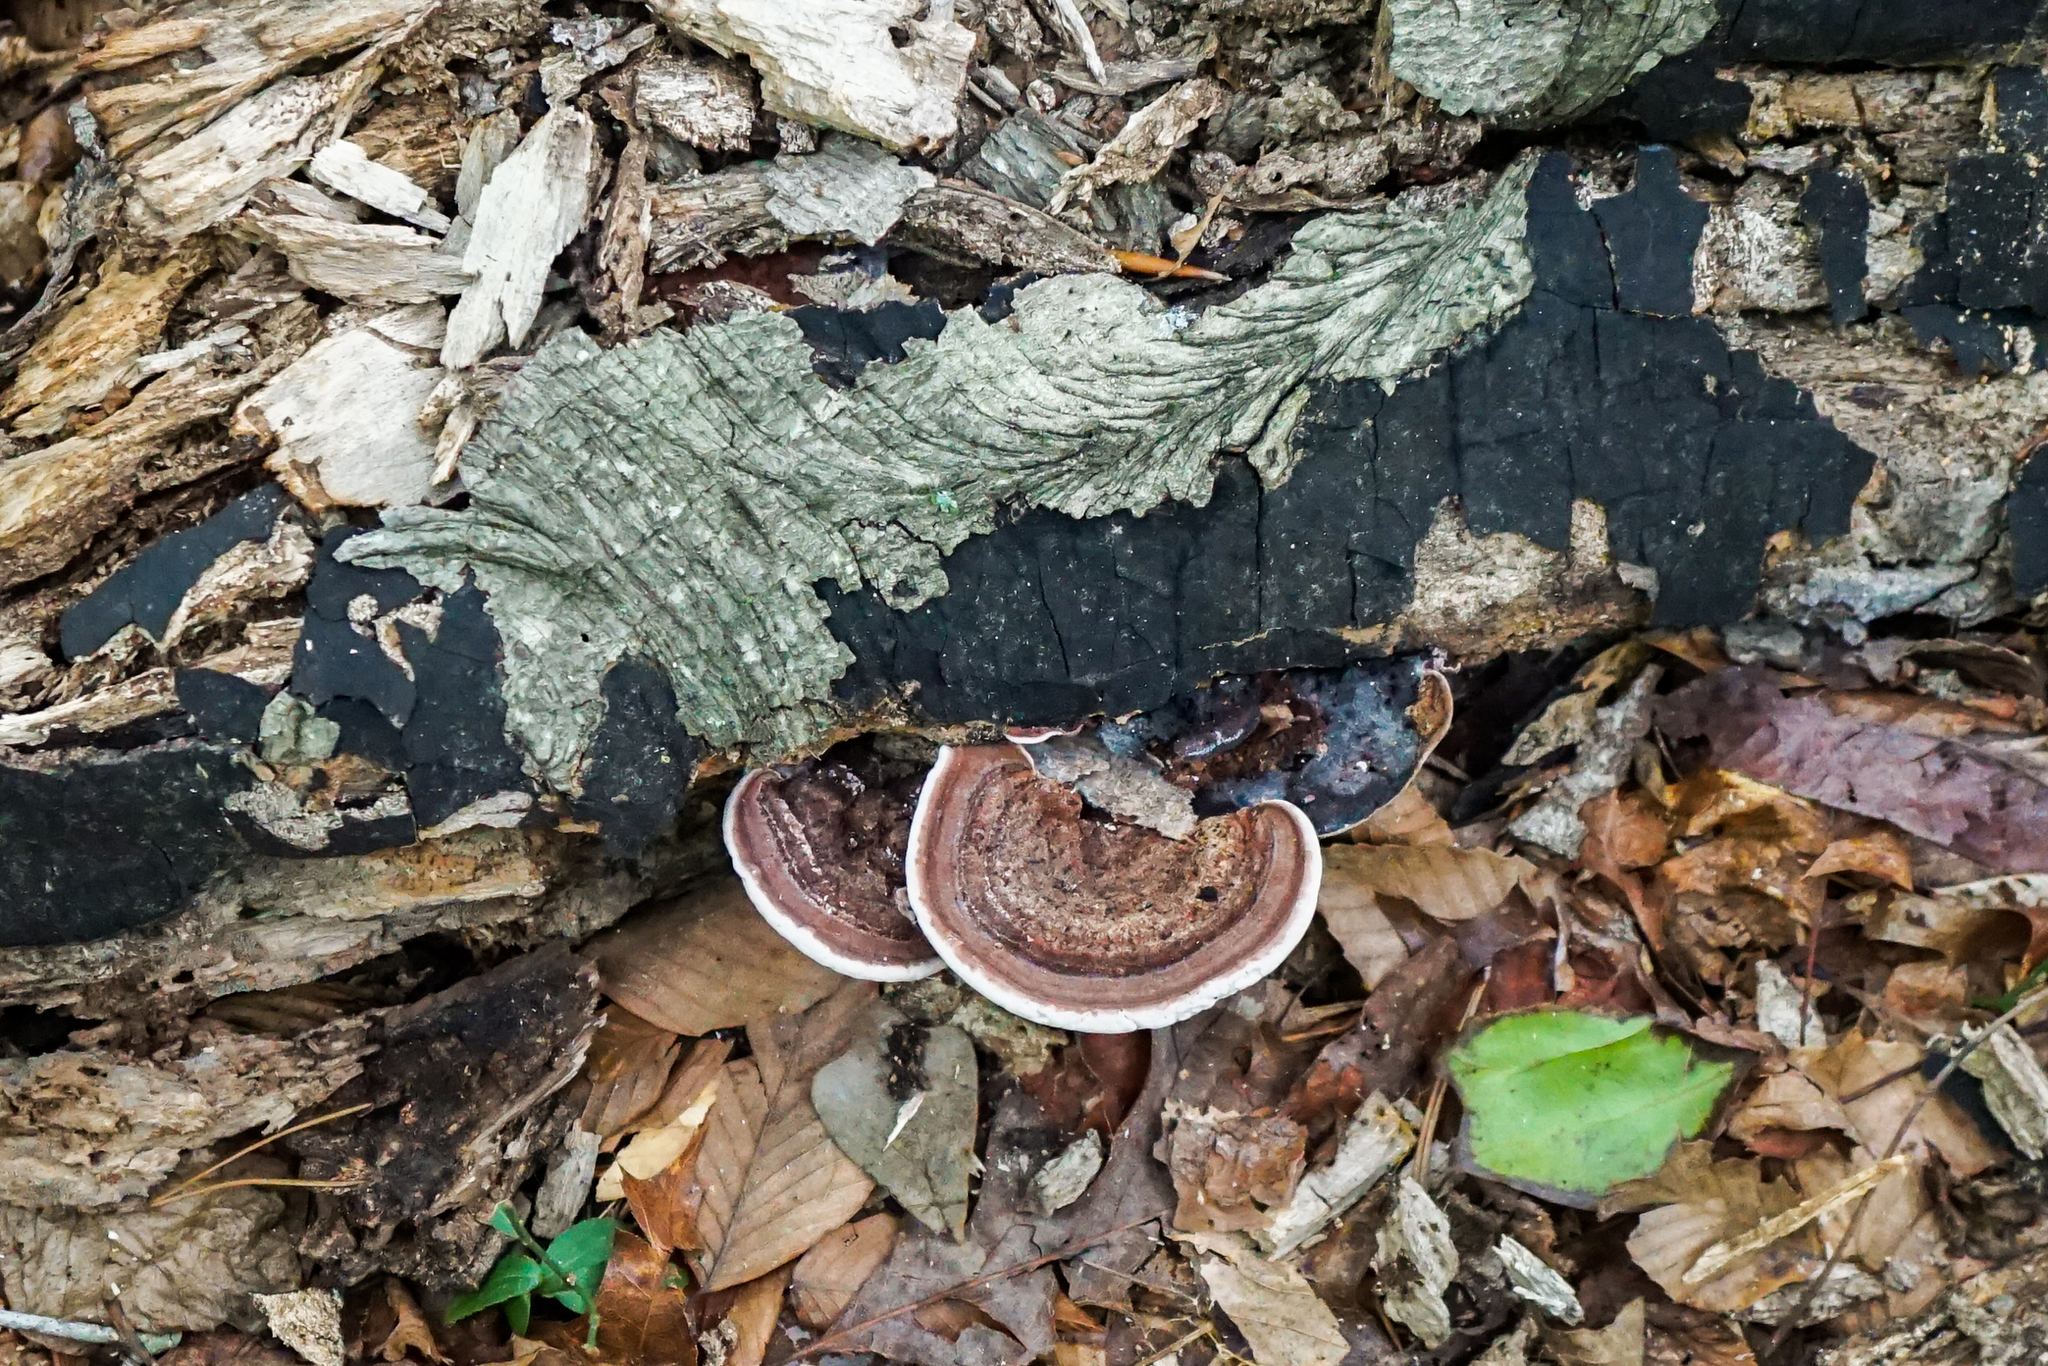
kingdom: Fungi
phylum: Basidiomycota
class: Agaricomycetes
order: Polyporales
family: Steccherinaceae
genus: Nigroporus
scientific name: Nigroporus vinosus
